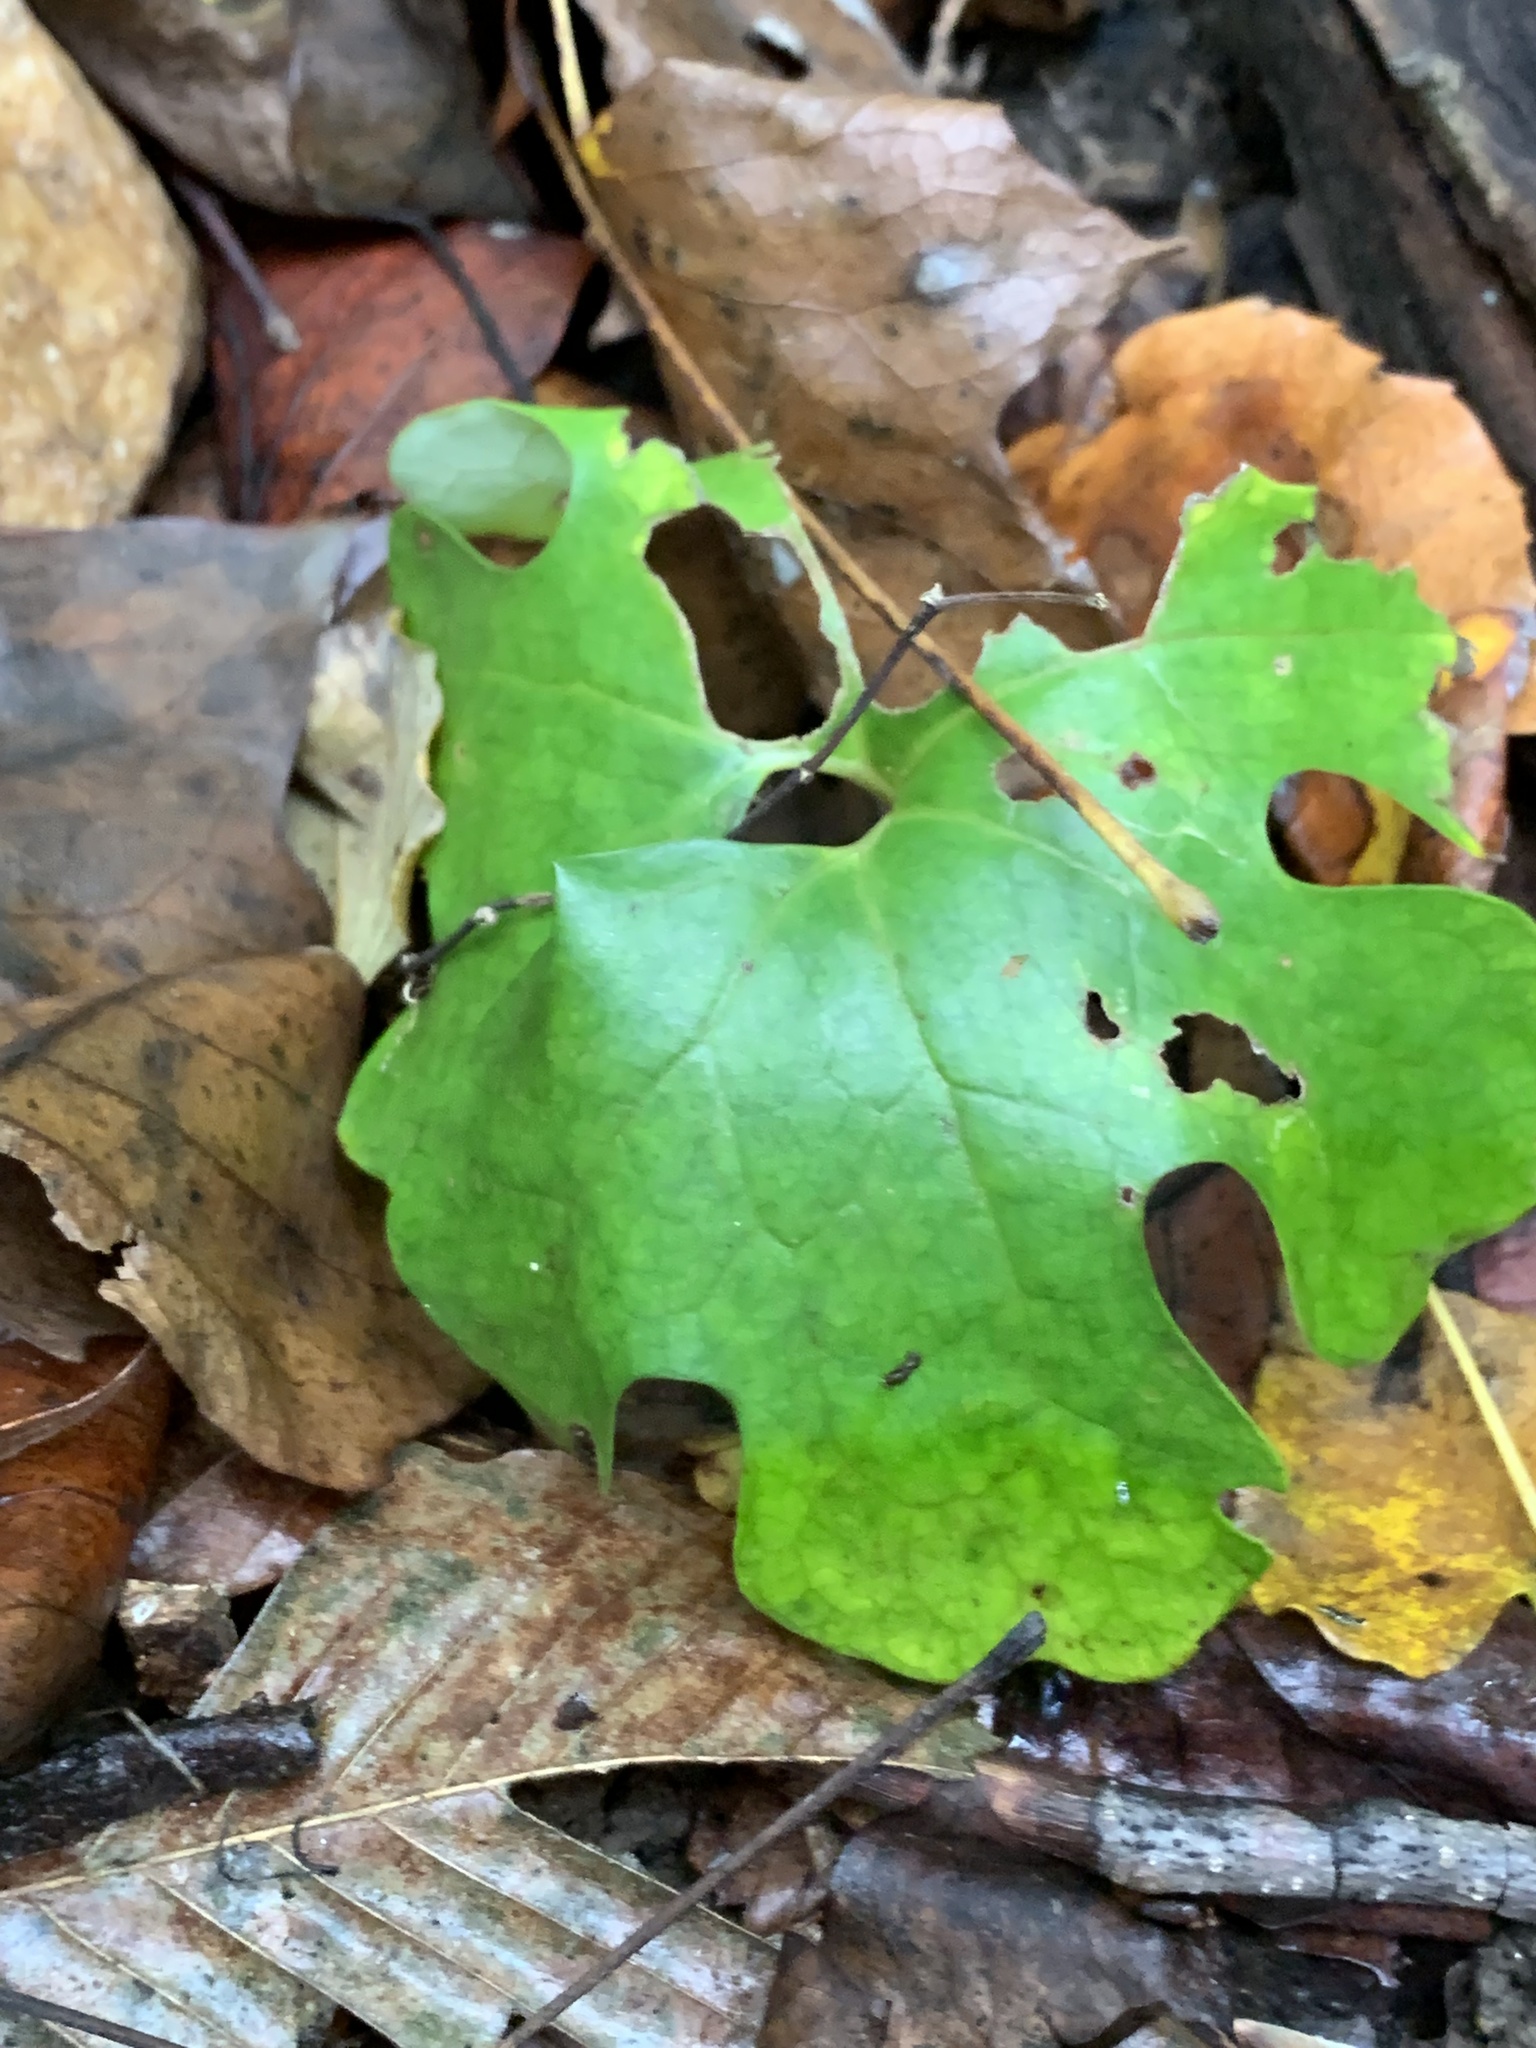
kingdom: Plantae
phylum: Tracheophyta
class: Magnoliopsida
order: Ranunculales
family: Papaveraceae
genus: Sanguinaria
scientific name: Sanguinaria canadensis
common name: Bloodroot
